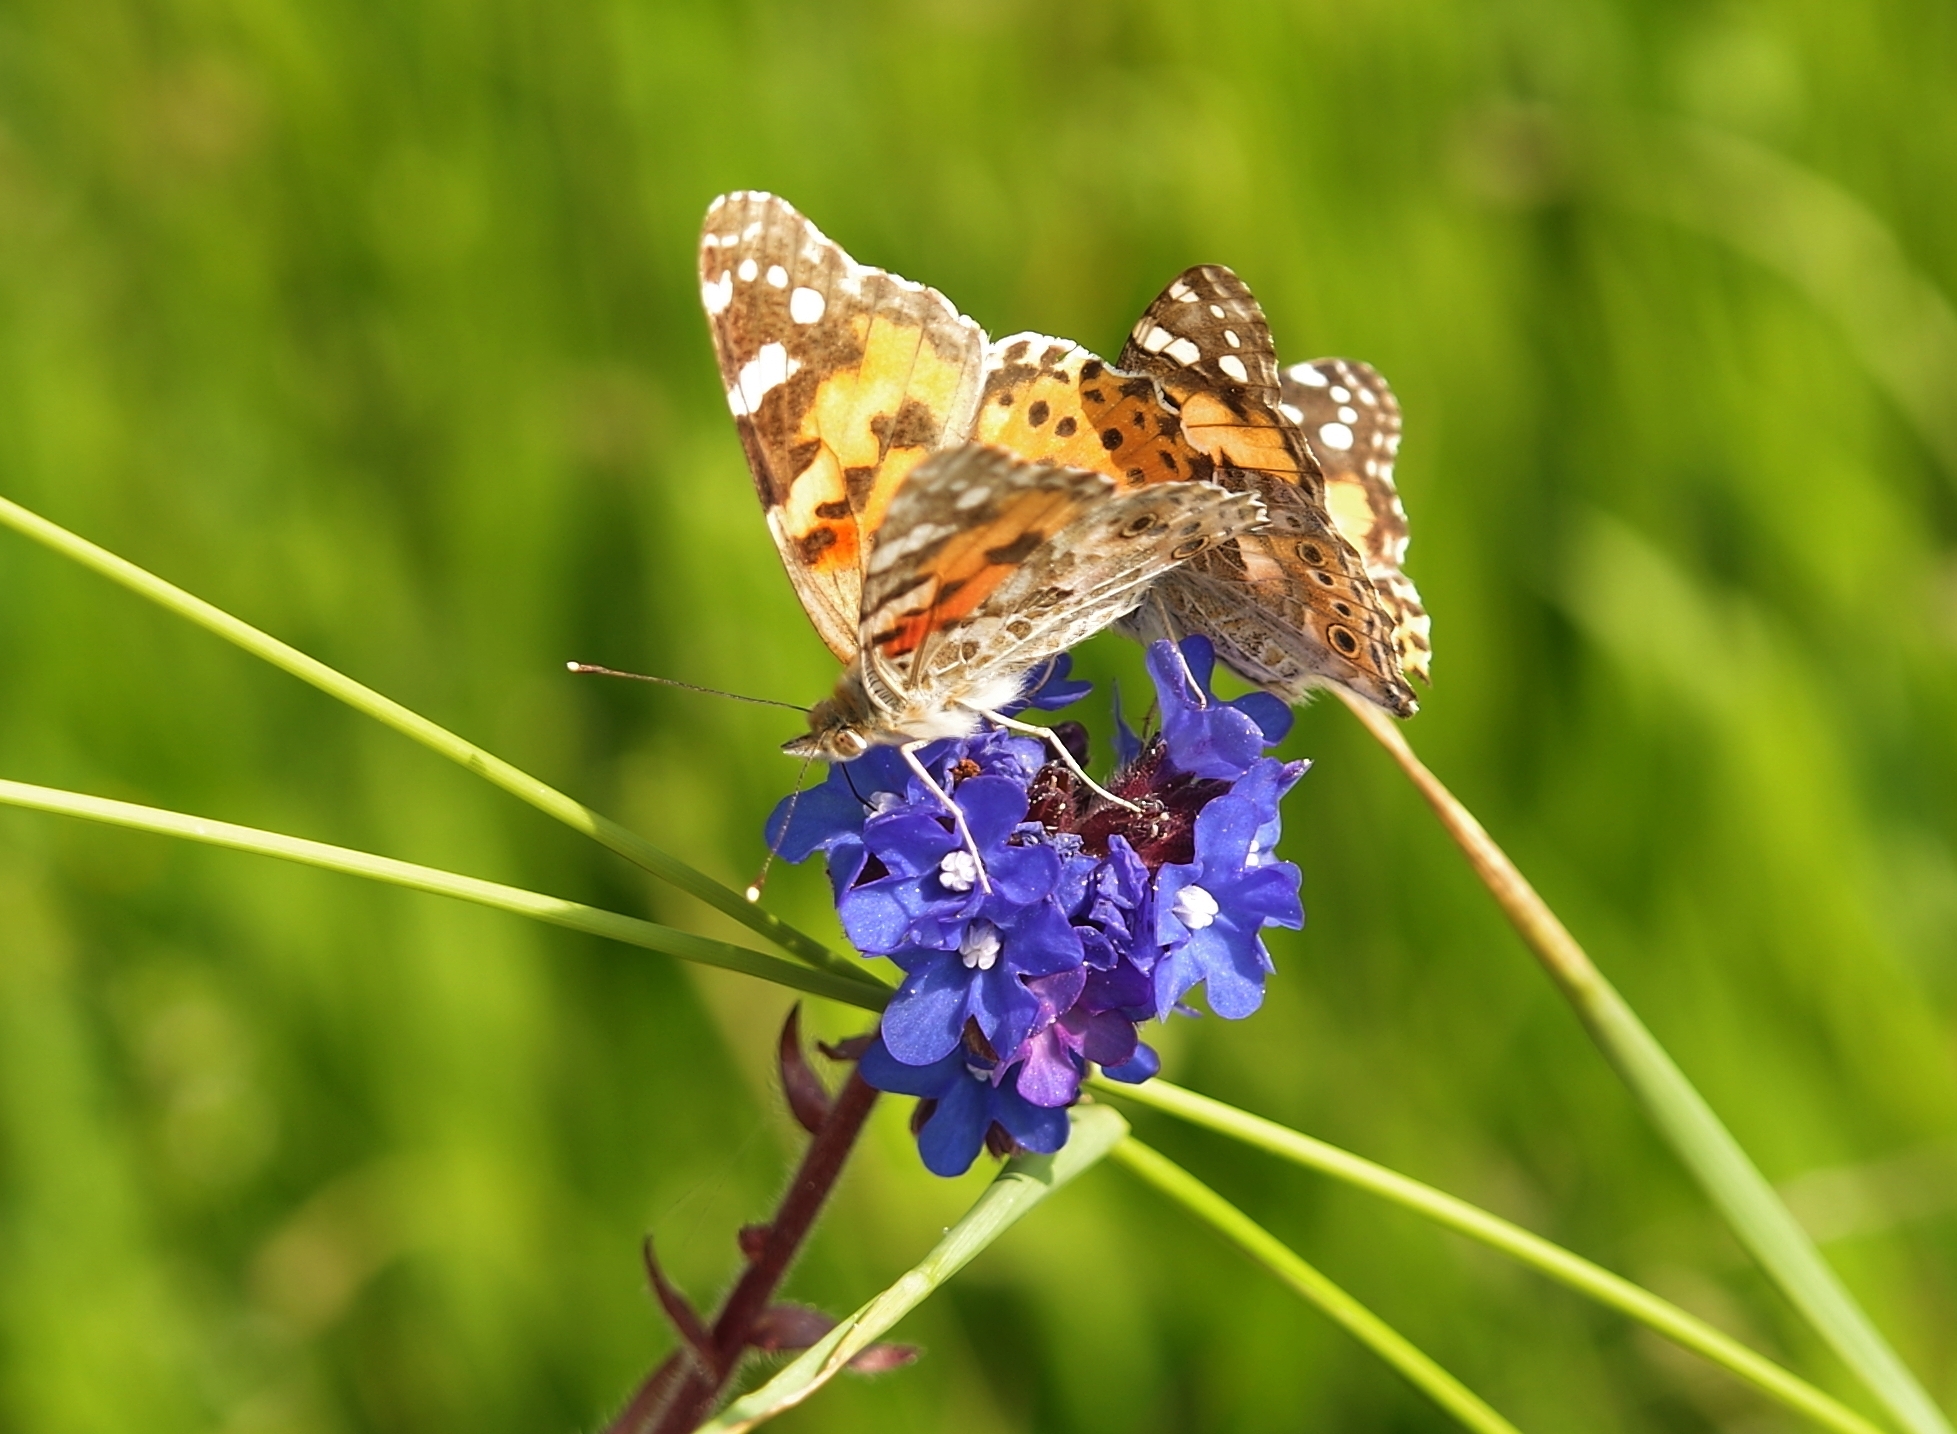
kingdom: Animalia
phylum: Arthropoda
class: Insecta
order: Lepidoptera
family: Nymphalidae
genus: Vanessa
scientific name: Vanessa cardui
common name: Painted lady
